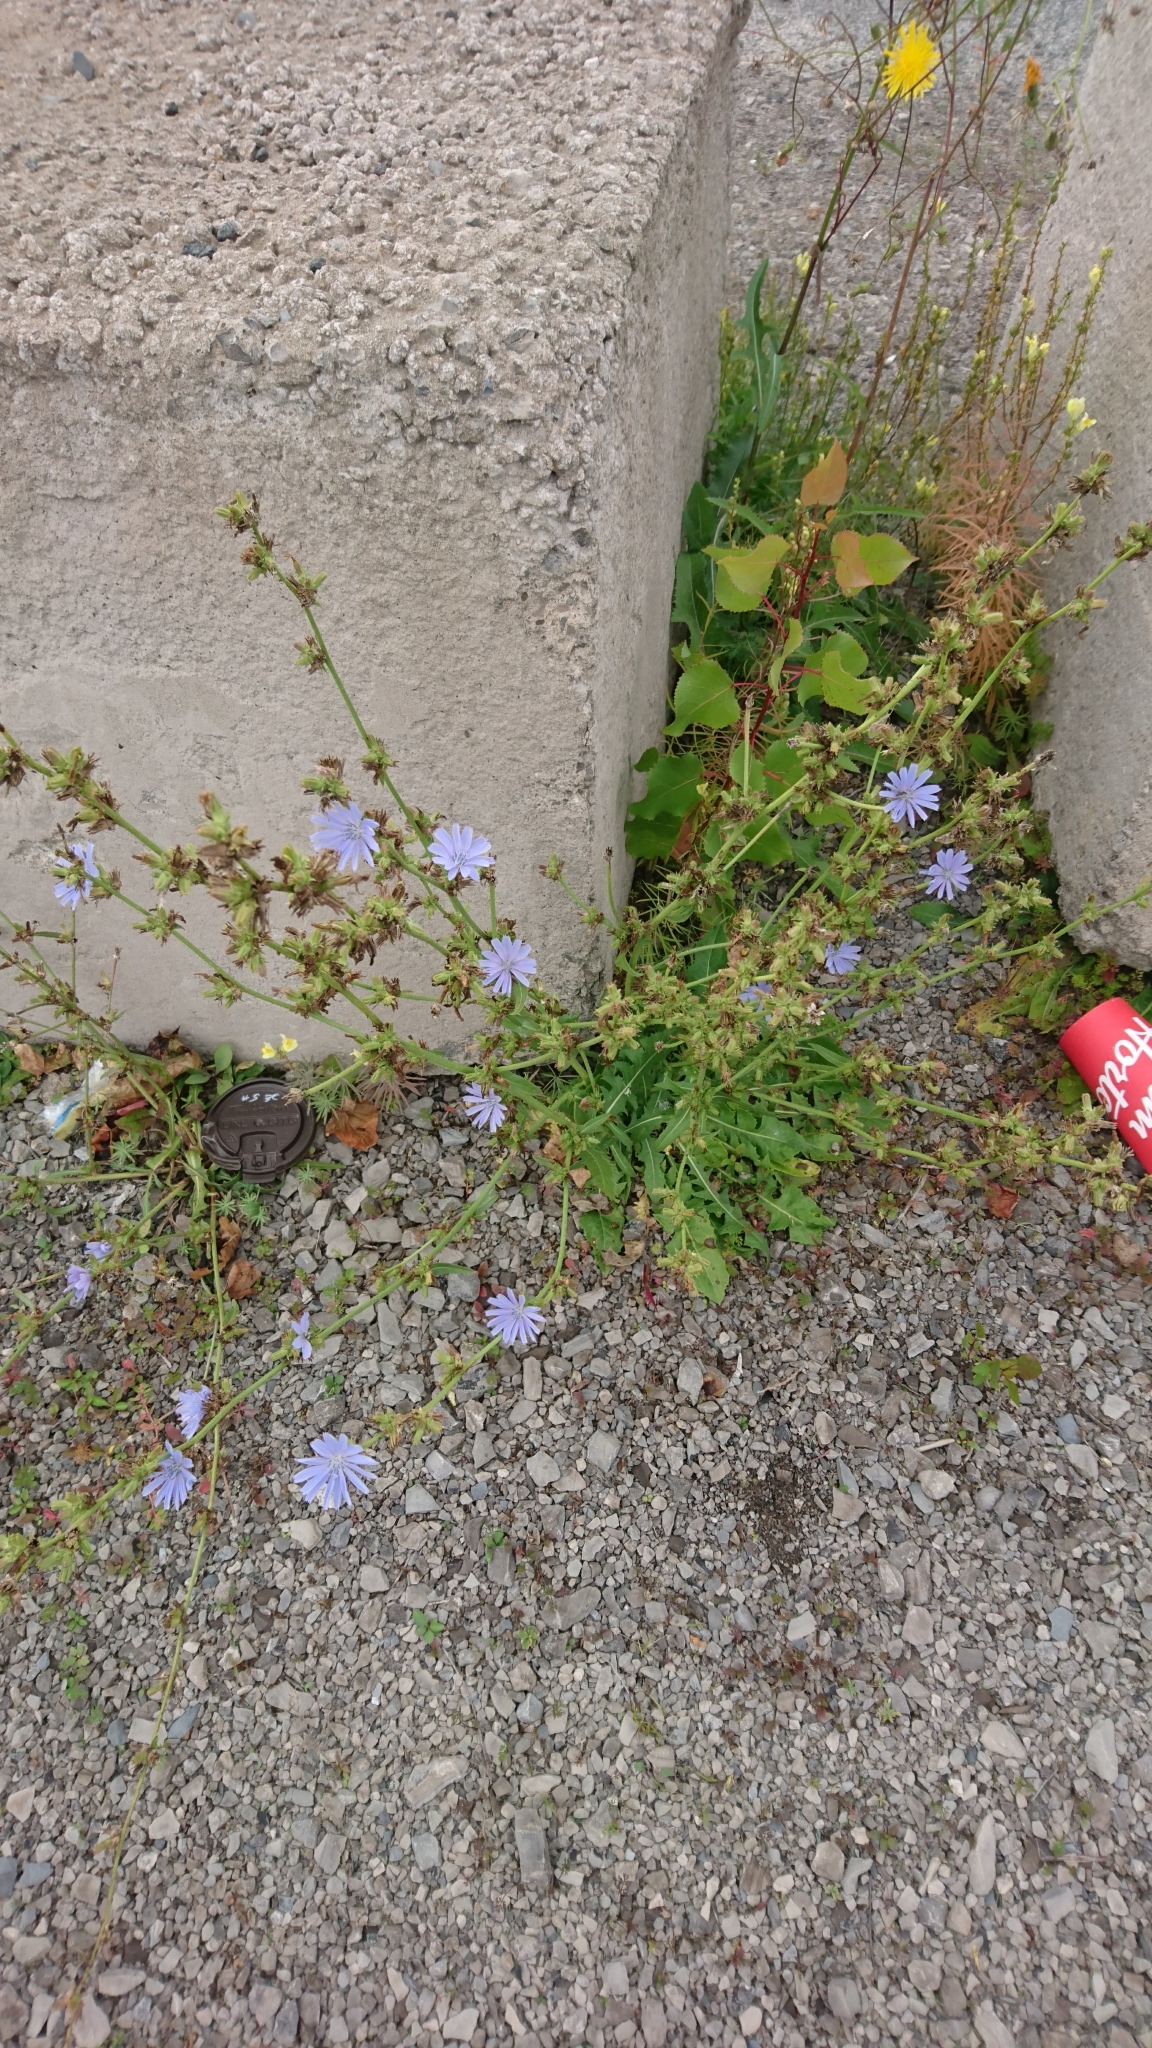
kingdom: Plantae
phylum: Tracheophyta
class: Magnoliopsida
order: Asterales
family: Asteraceae
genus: Cichorium
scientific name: Cichorium intybus
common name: Chicory
